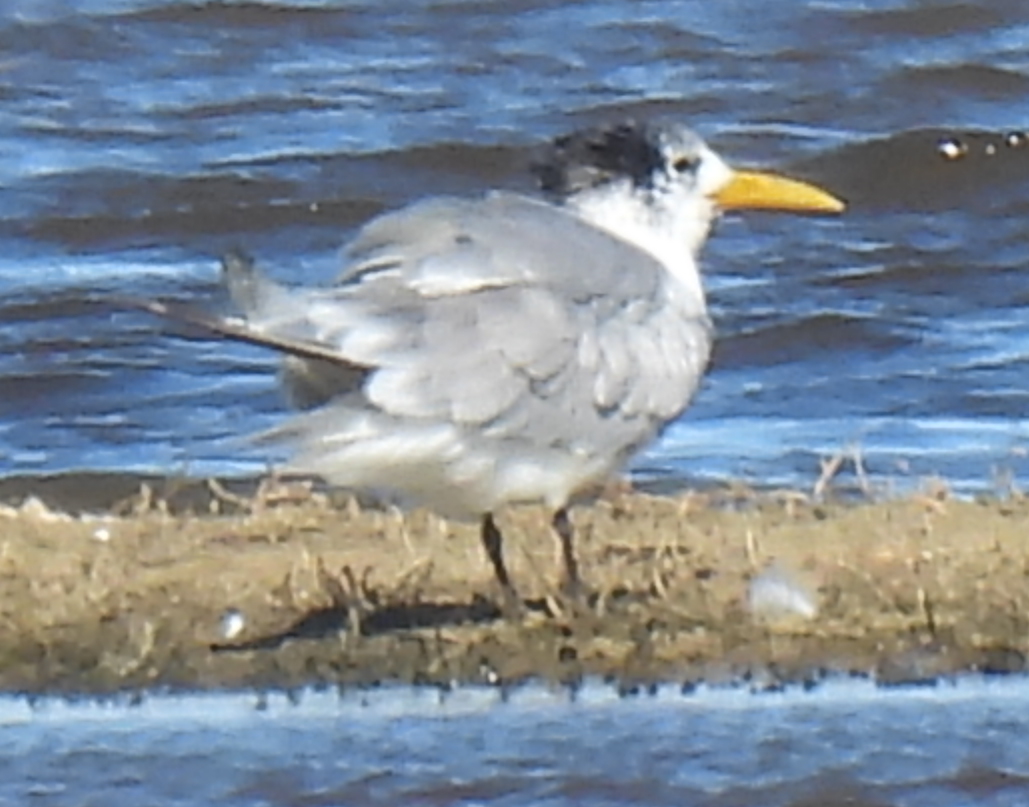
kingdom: Animalia
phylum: Chordata
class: Aves
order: Charadriiformes
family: Laridae
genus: Thalasseus
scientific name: Thalasseus bergii
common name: Greater crested tern
